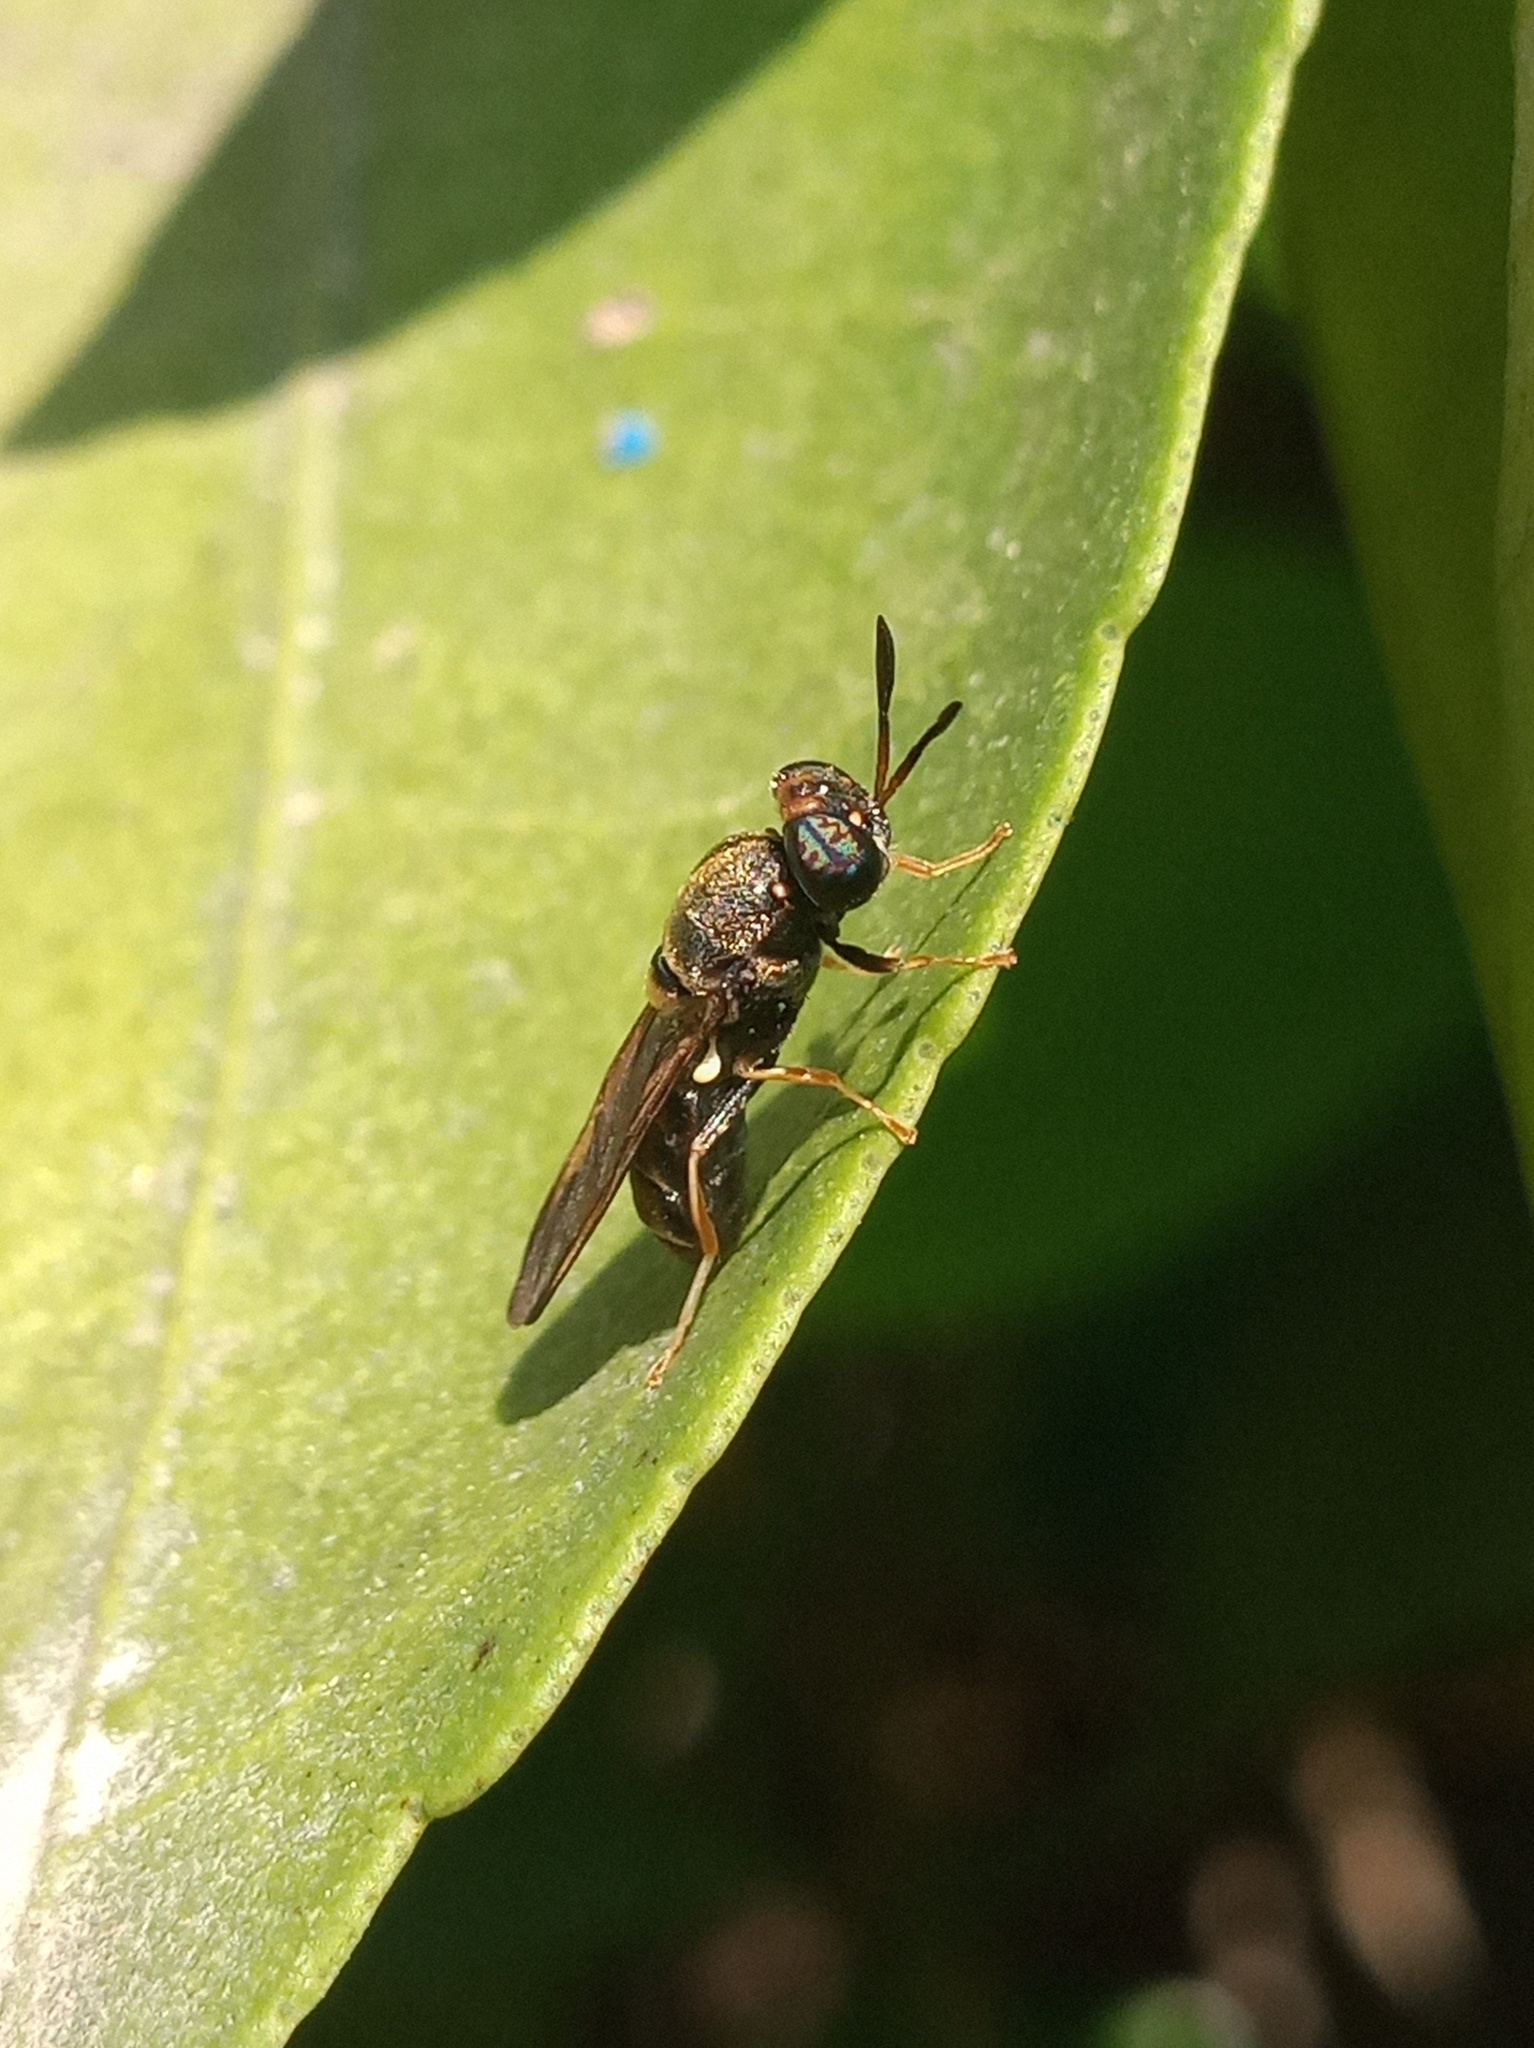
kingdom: Animalia
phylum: Arthropoda
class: Insecta
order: Diptera
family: Stratiomyidae
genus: Hermetia
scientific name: Hermetia chrysopila
